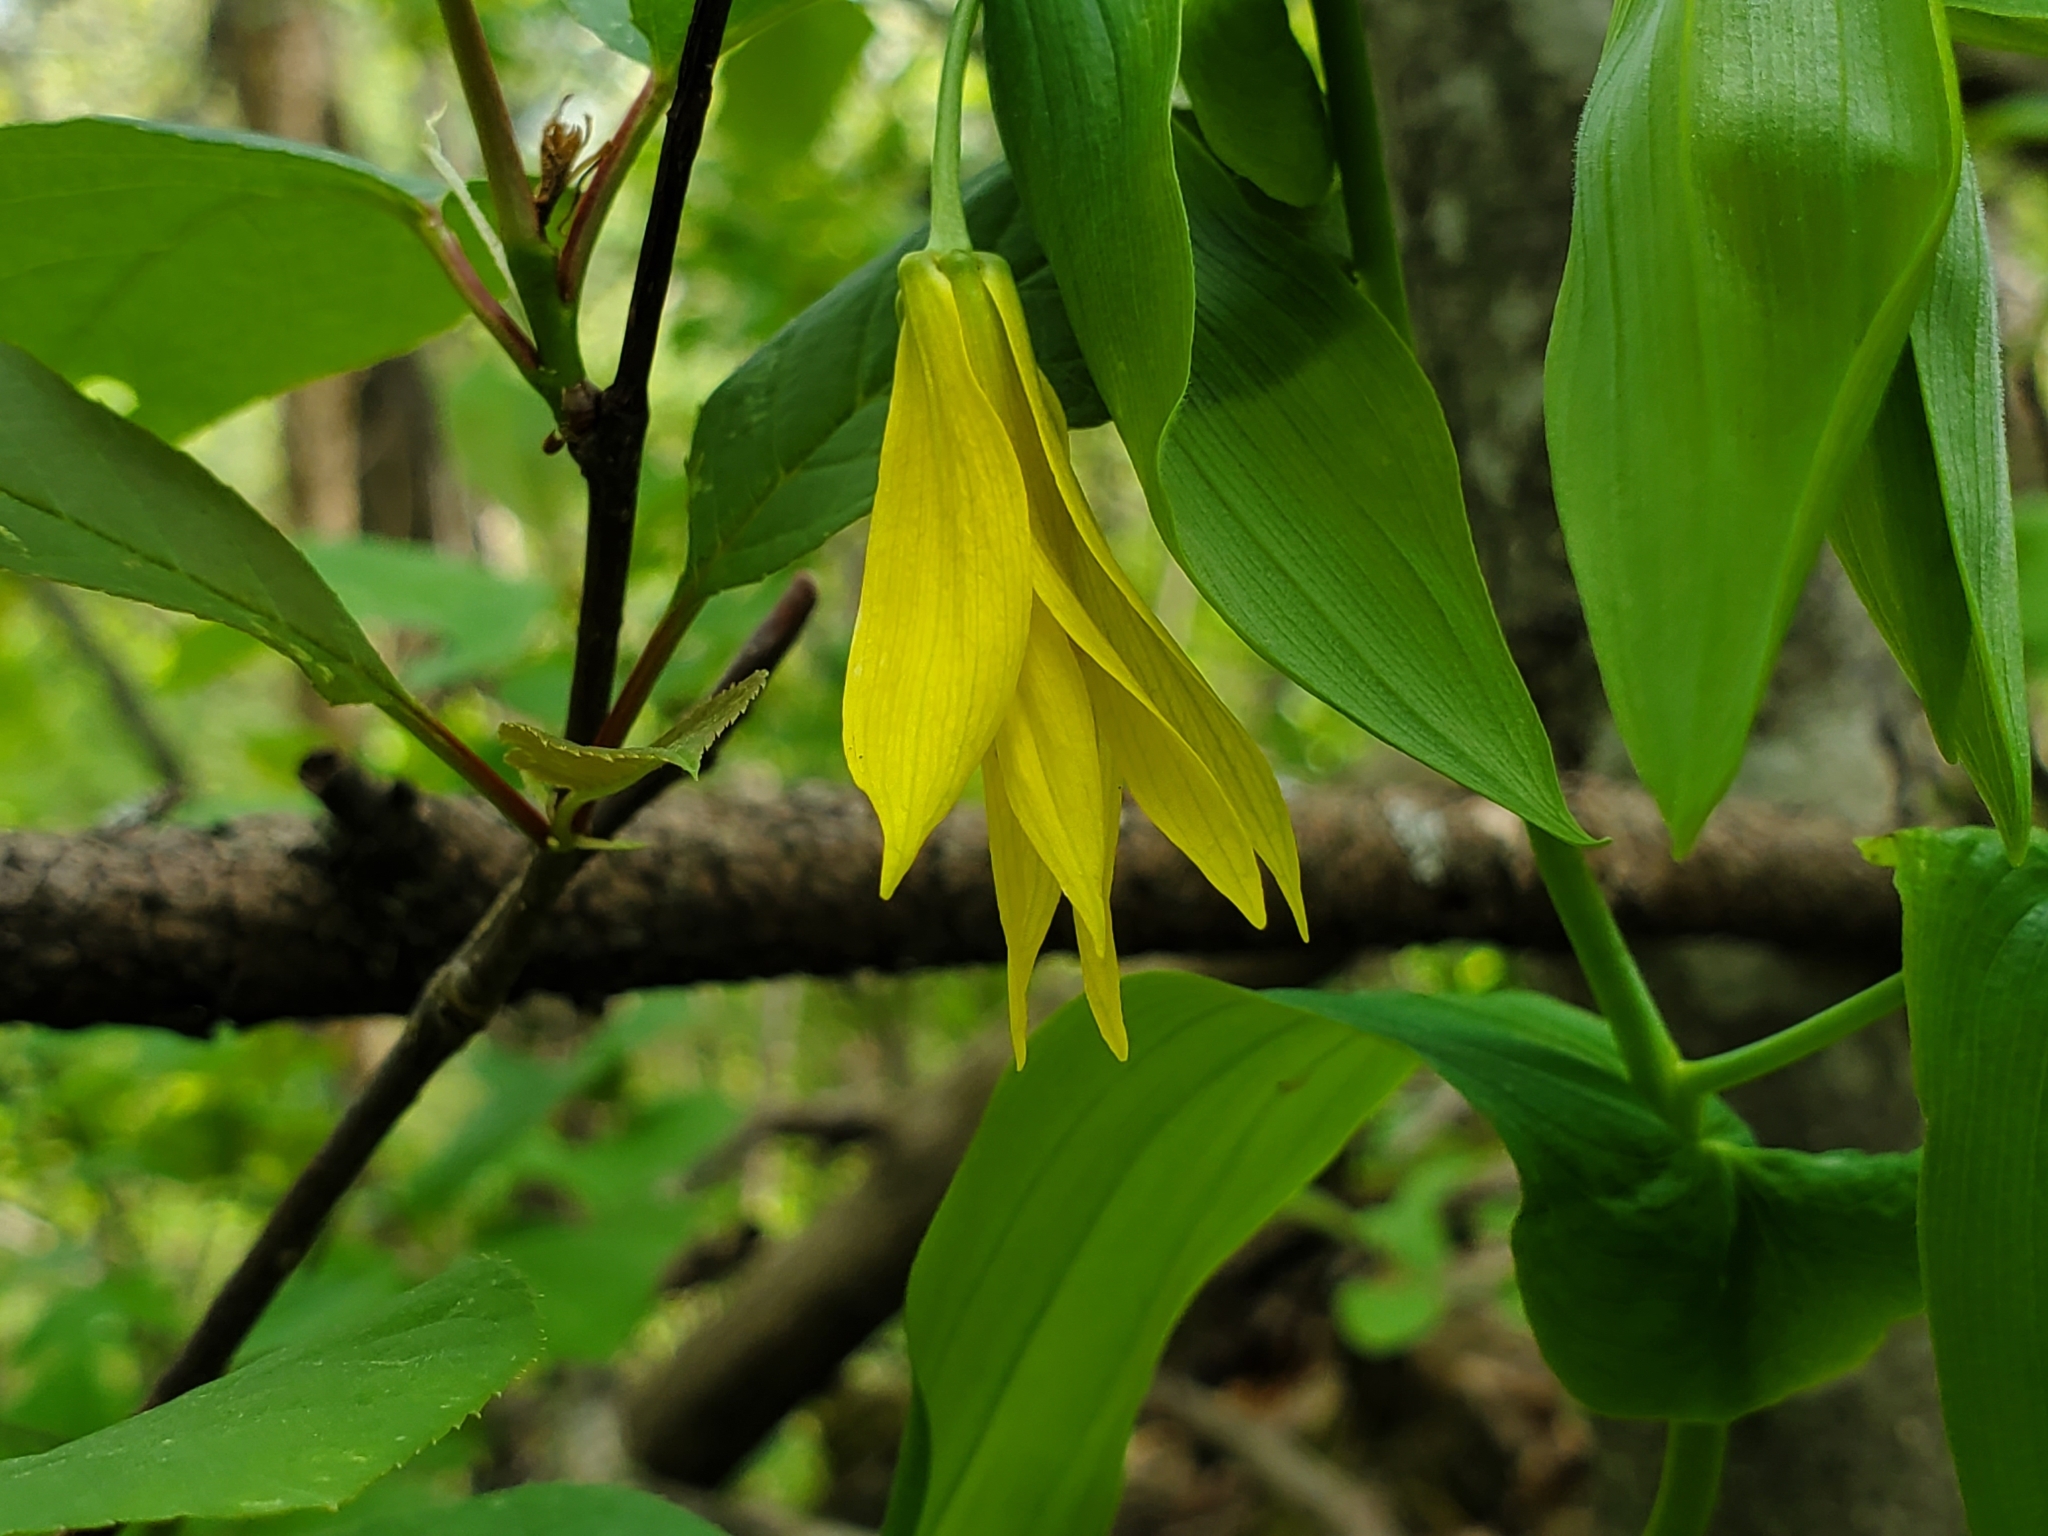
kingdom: Plantae
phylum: Tracheophyta
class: Liliopsida
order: Liliales
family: Colchicaceae
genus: Uvularia
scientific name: Uvularia grandiflora
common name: Bellwort
